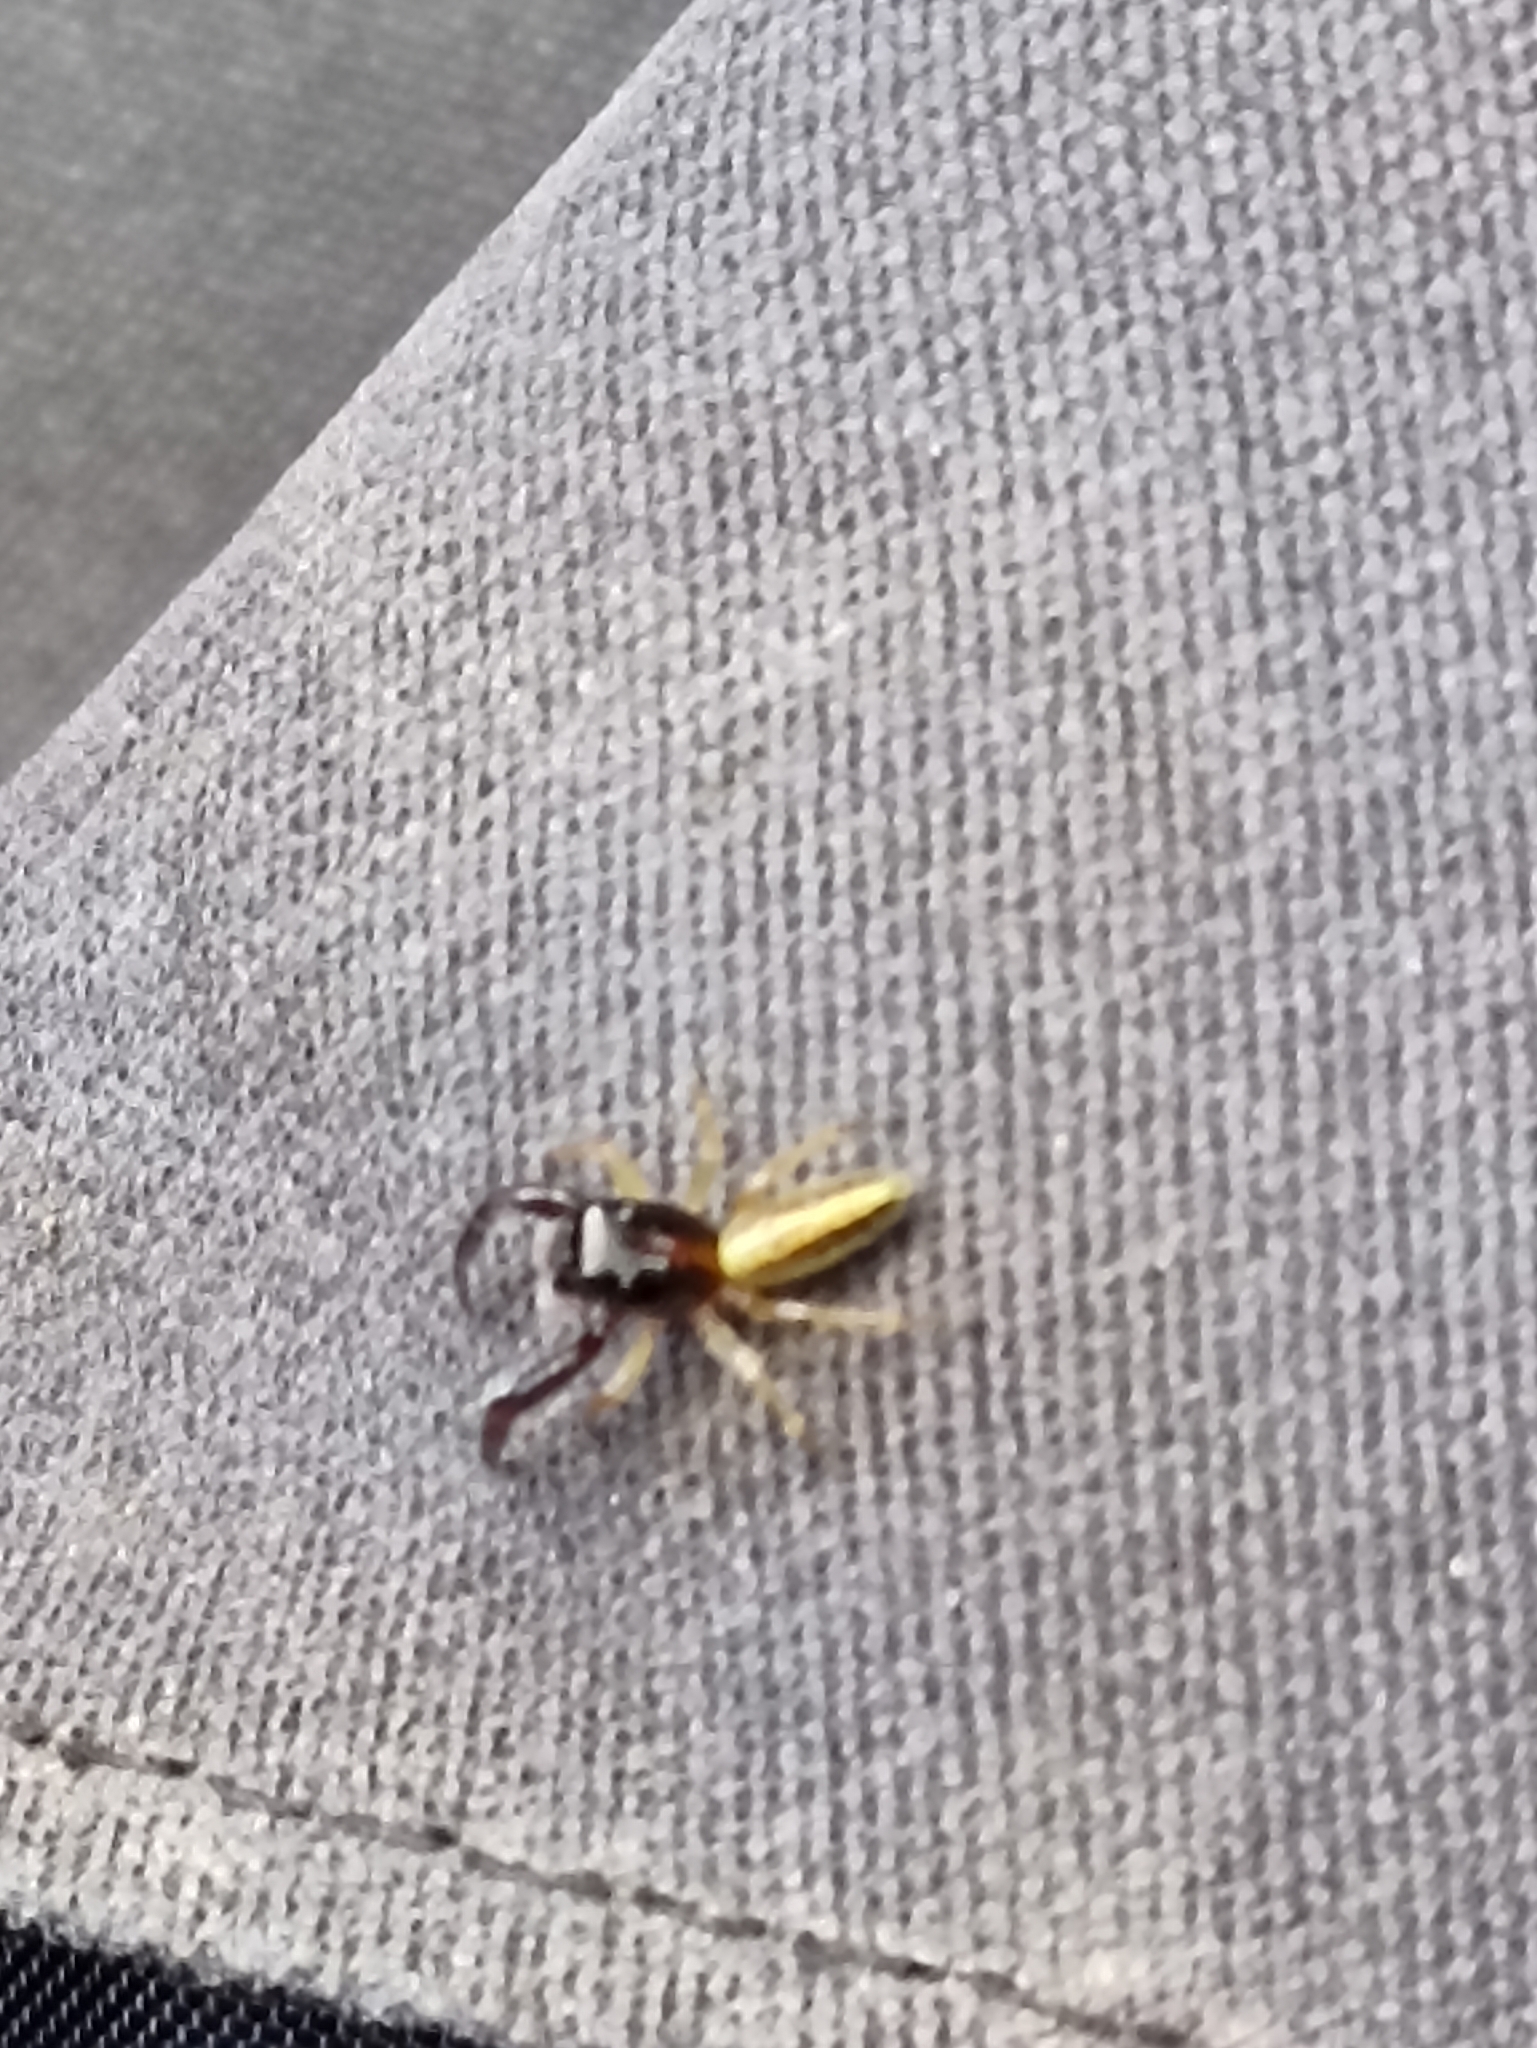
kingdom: Animalia
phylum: Arthropoda
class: Arachnida
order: Araneae
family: Salticidae
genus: Trite
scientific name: Trite planiceps
